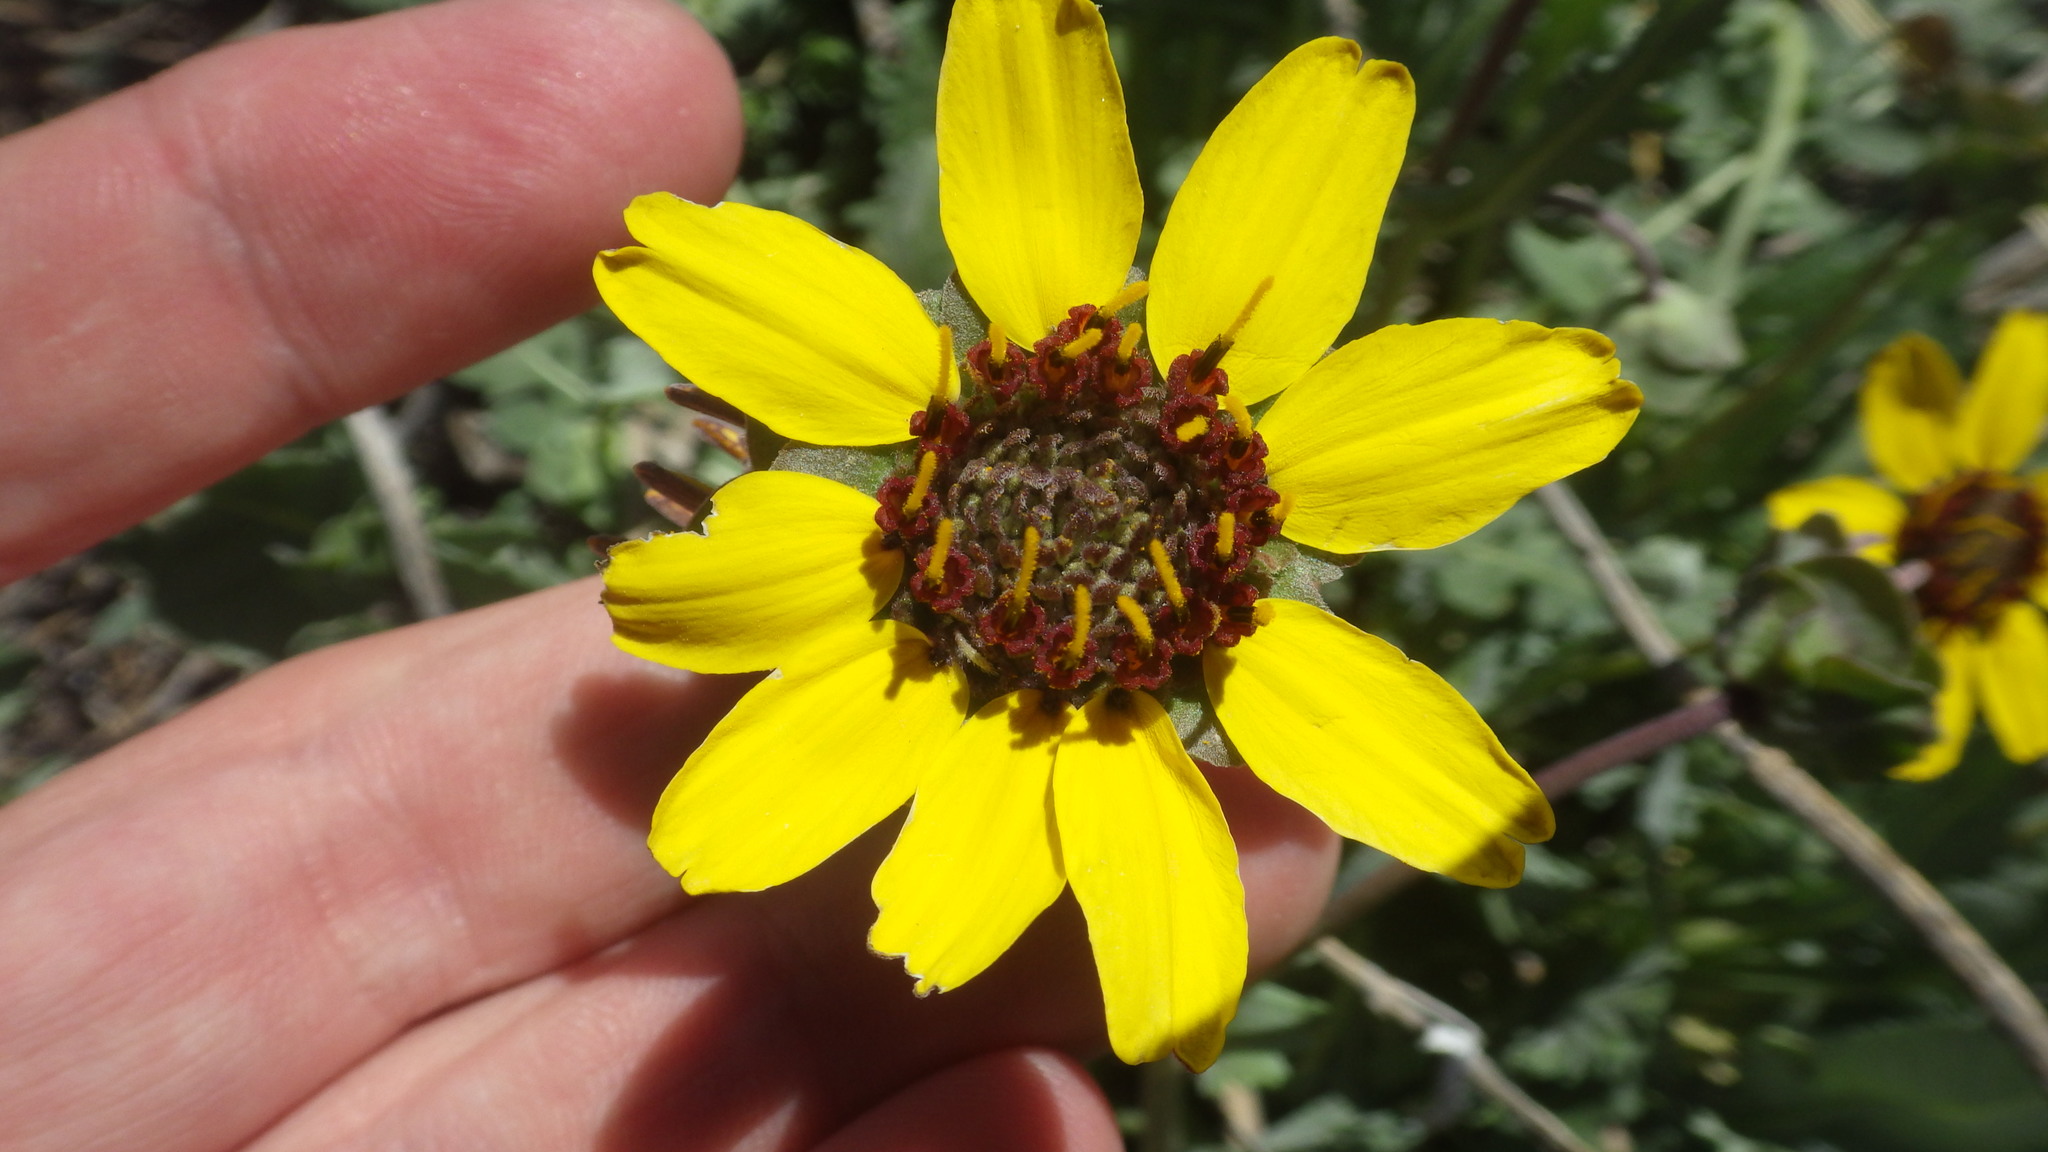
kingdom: Plantae
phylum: Tracheophyta
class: Magnoliopsida
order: Asterales
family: Asteraceae
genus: Berlandiera
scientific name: Berlandiera lyrata
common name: Chocolate-flower
